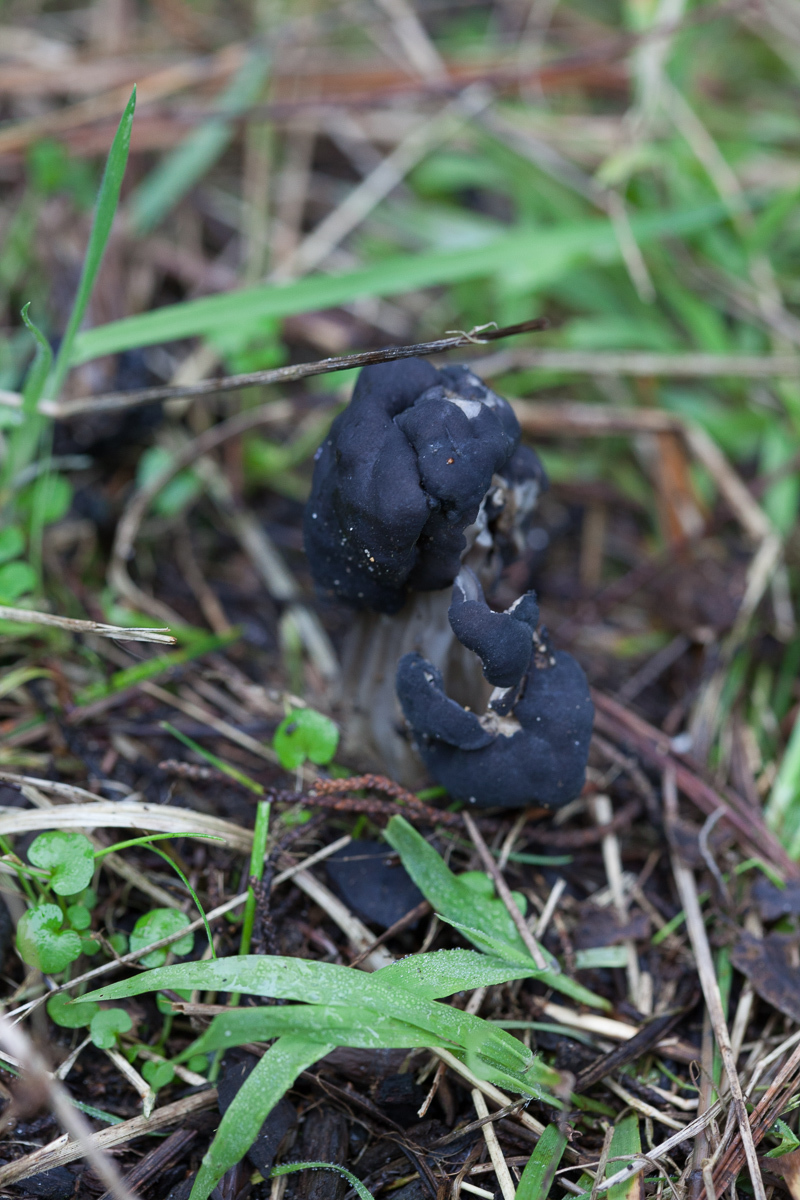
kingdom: Fungi
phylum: Ascomycota
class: Pezizomycetes
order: Pezizales
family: Helvellaceae
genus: Helvella
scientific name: Helvella vespertina
